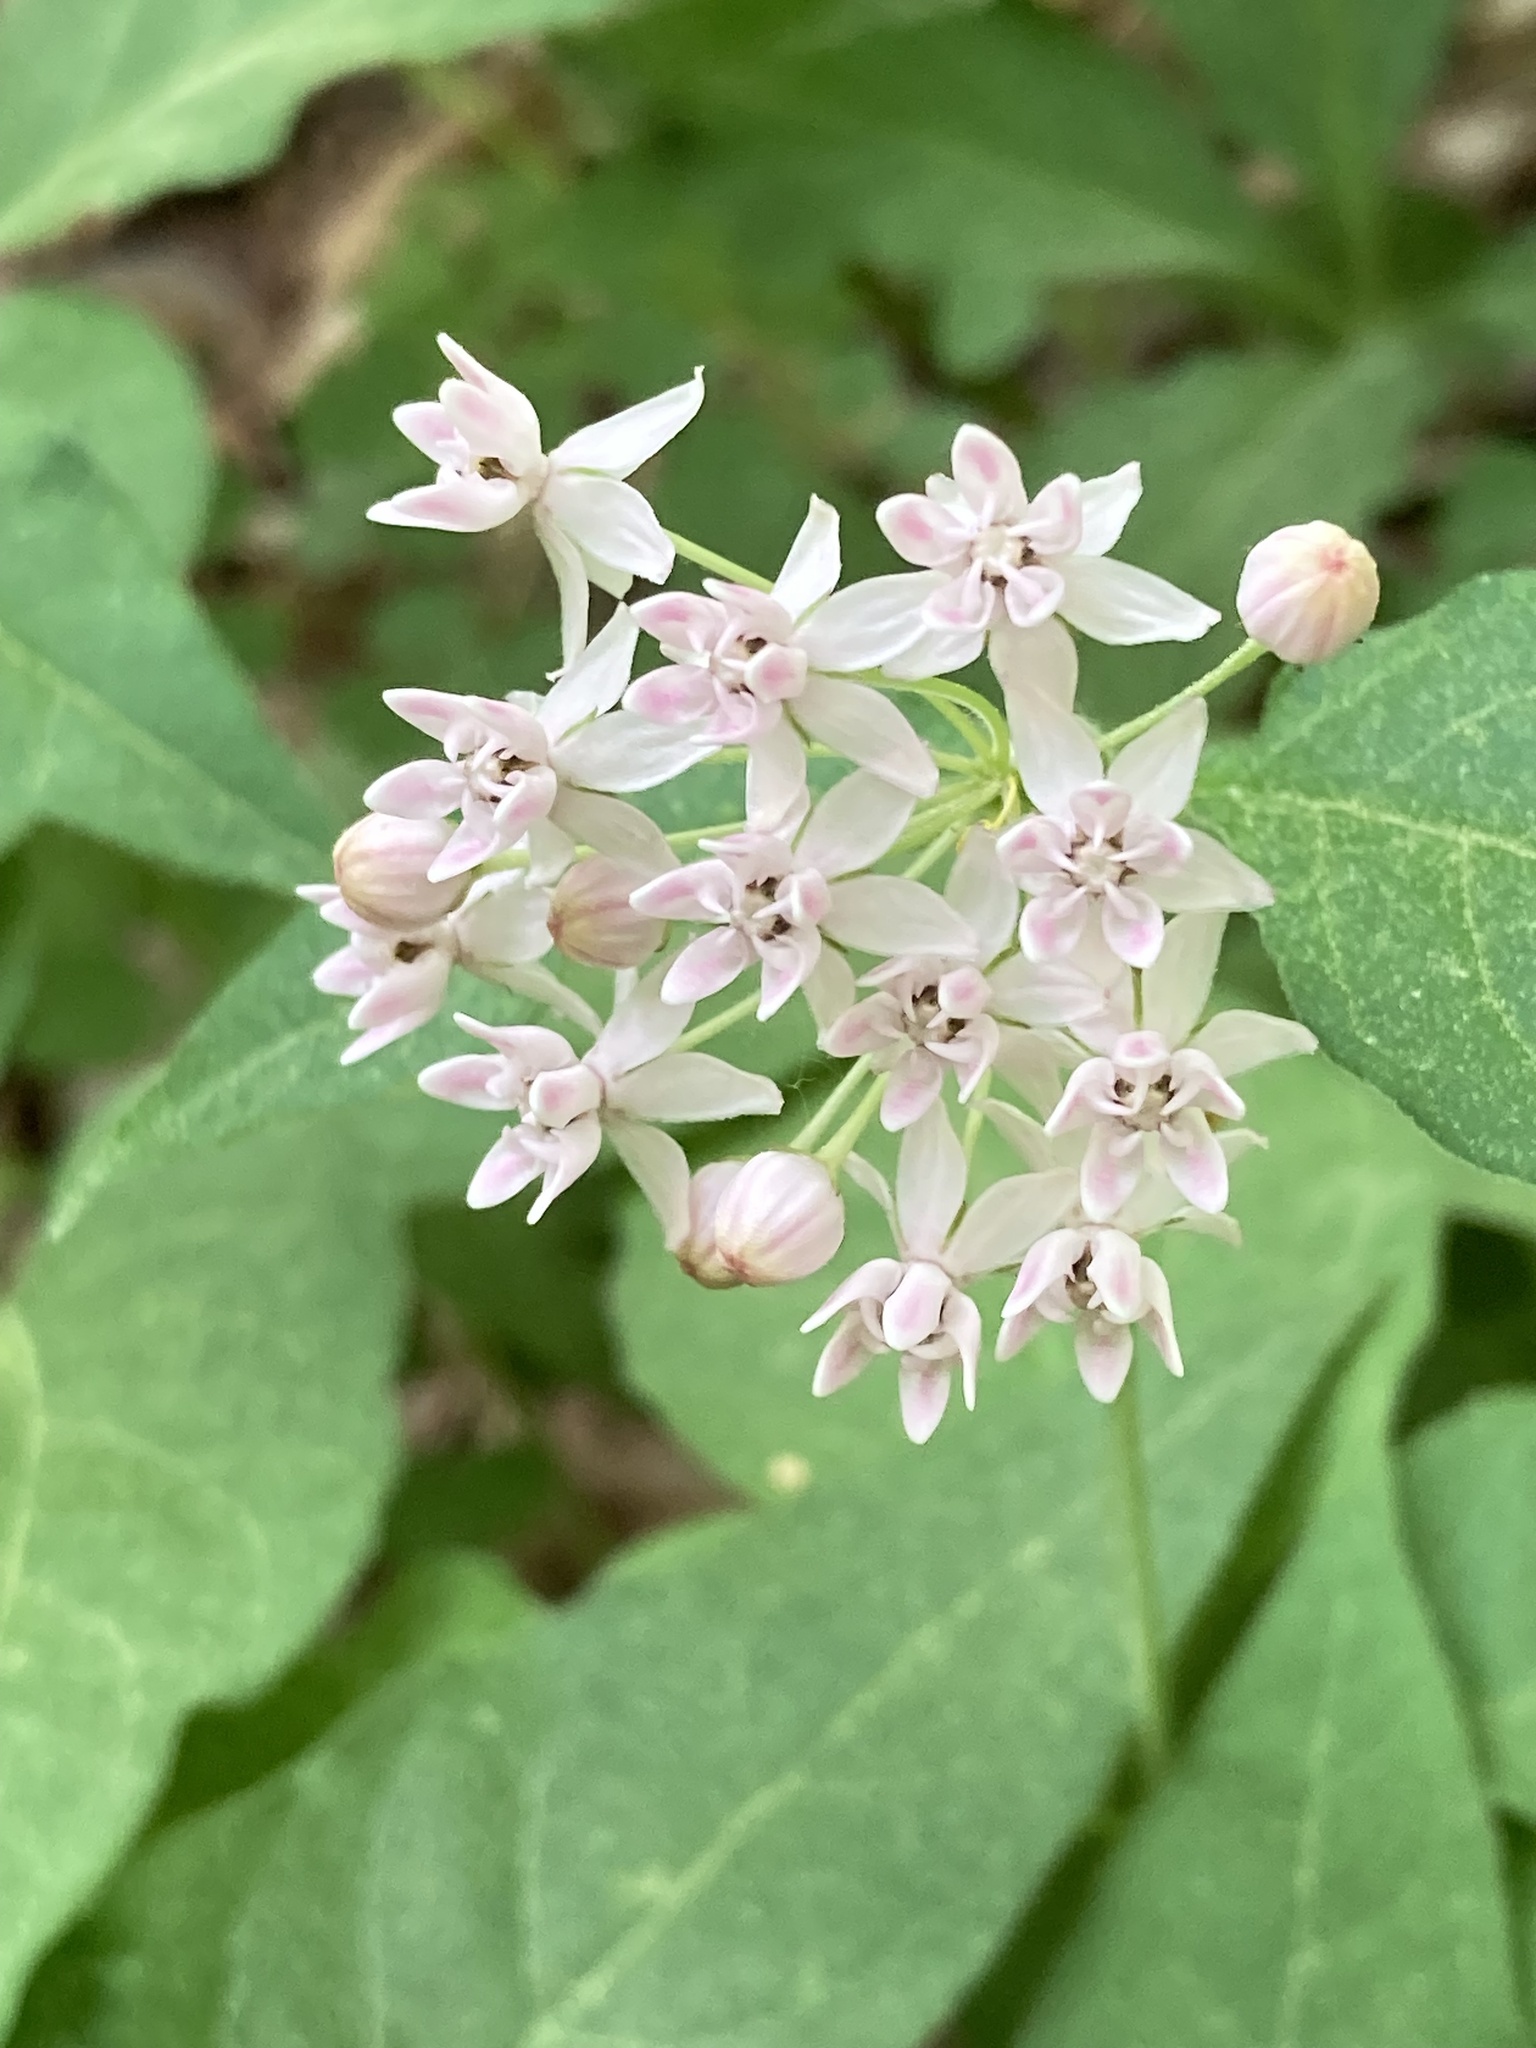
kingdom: Plantae
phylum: Tracheophyta
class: Magnoliopsida
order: Gentianales
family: Apocynaceae
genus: Asclepias
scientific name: Asclepias quadrifolia
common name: Whorled milkweed
